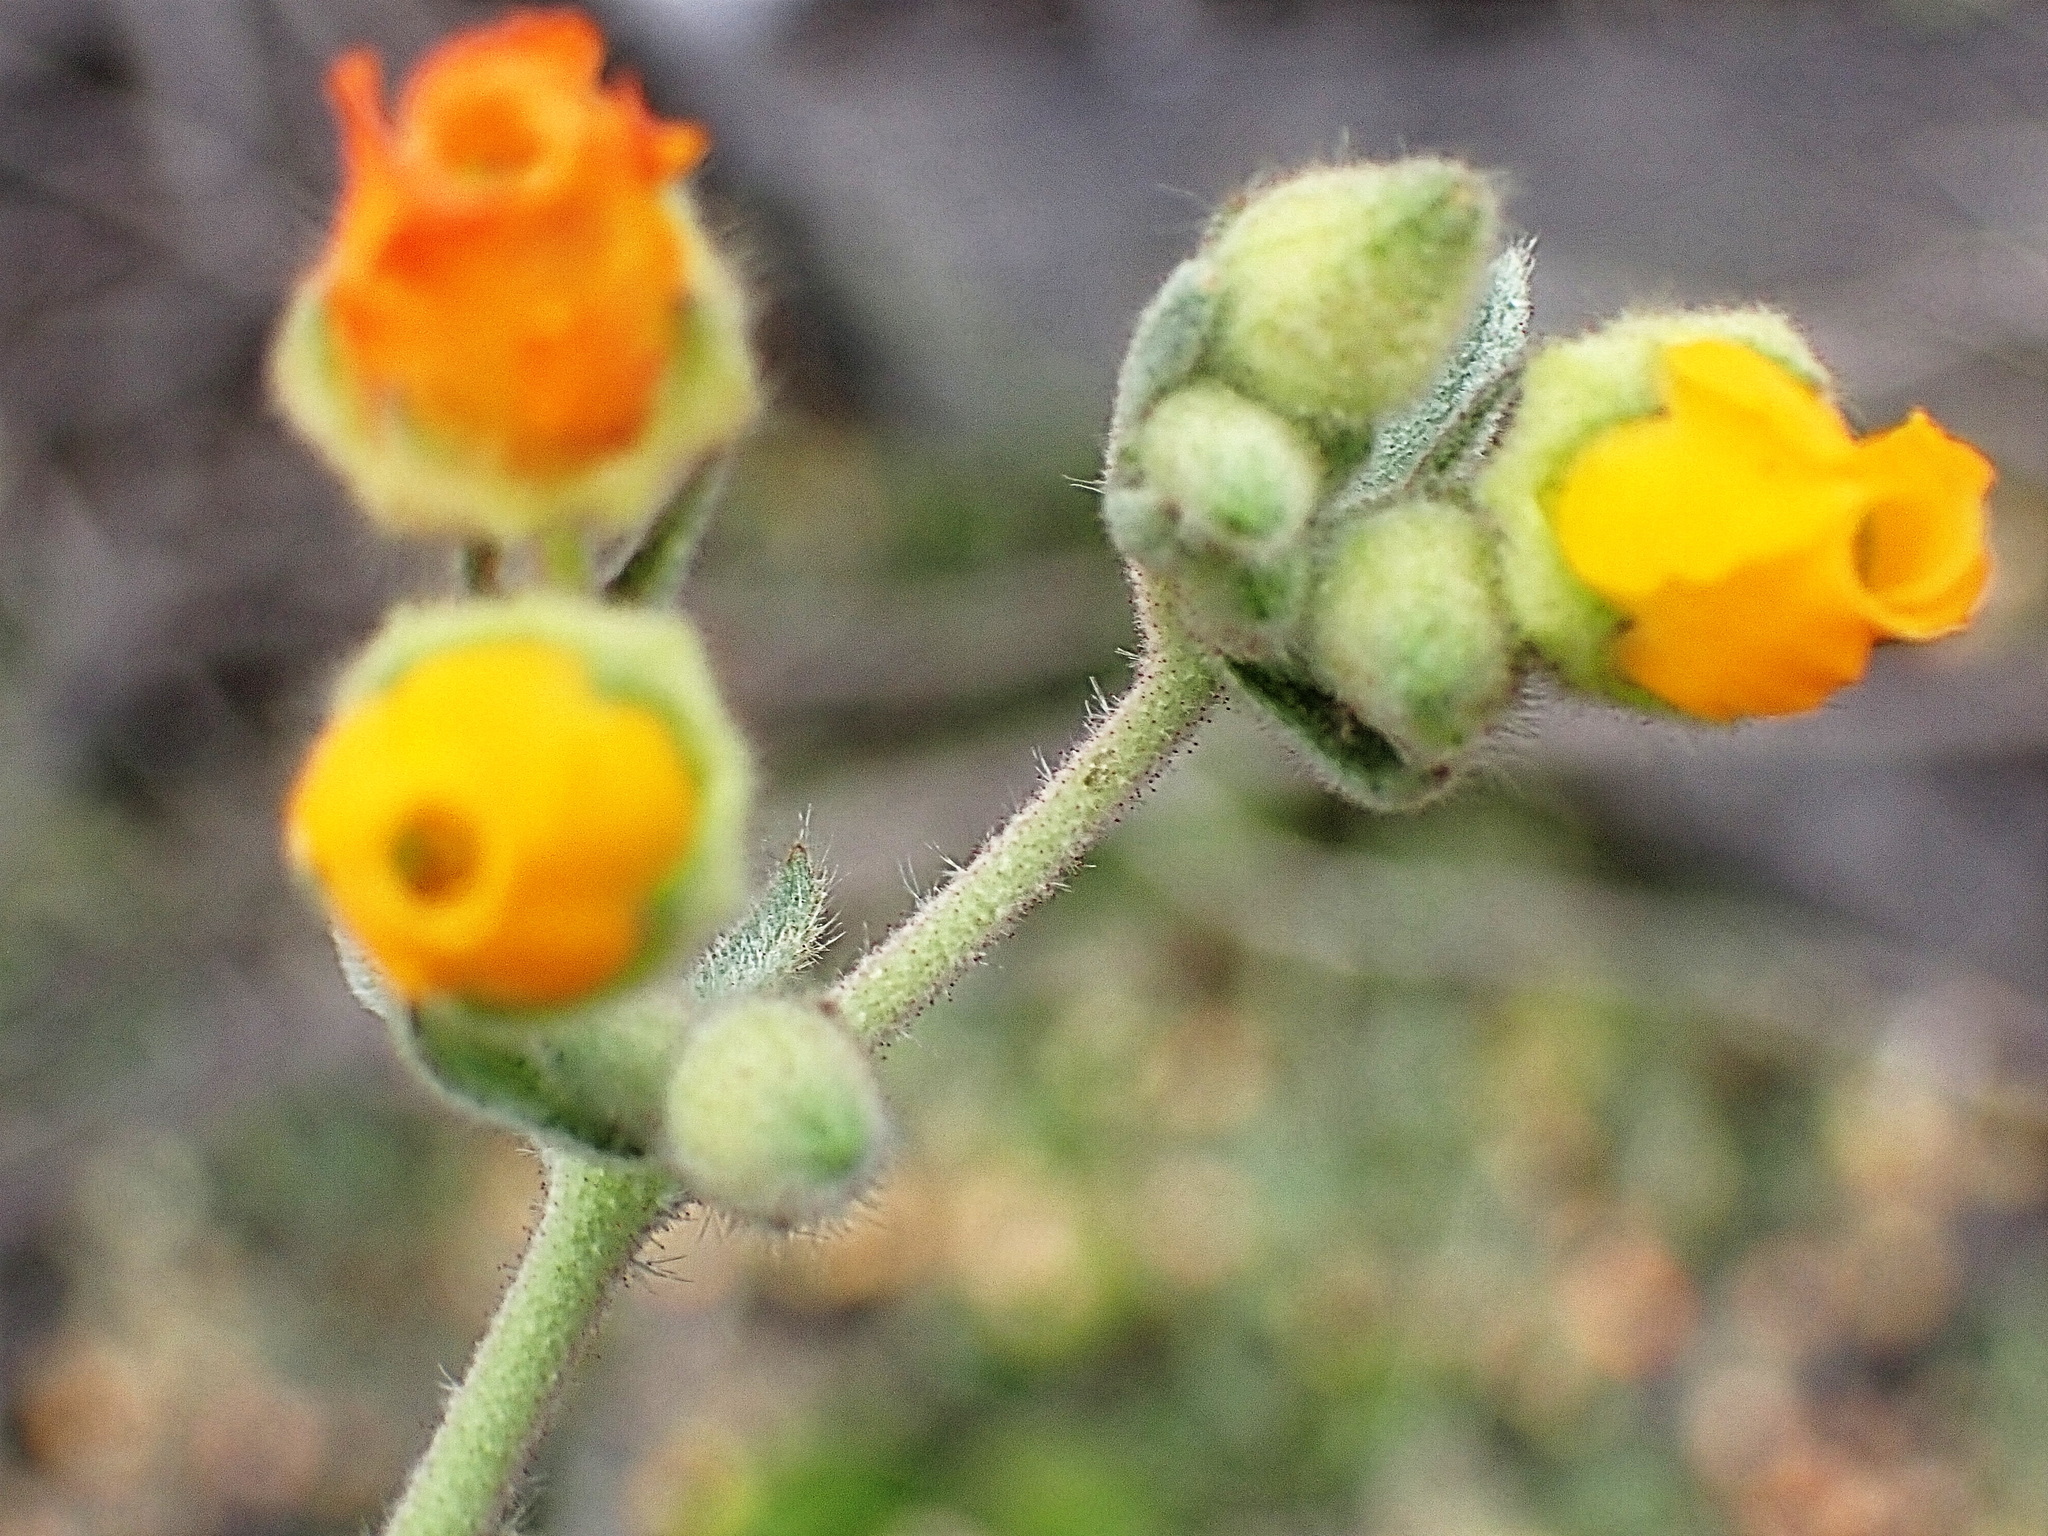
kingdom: Plantae
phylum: Tracheophyta
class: Magnoliopsida
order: Malvales
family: Malvaceae
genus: Hermannia
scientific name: Hermannia althaeifolia
